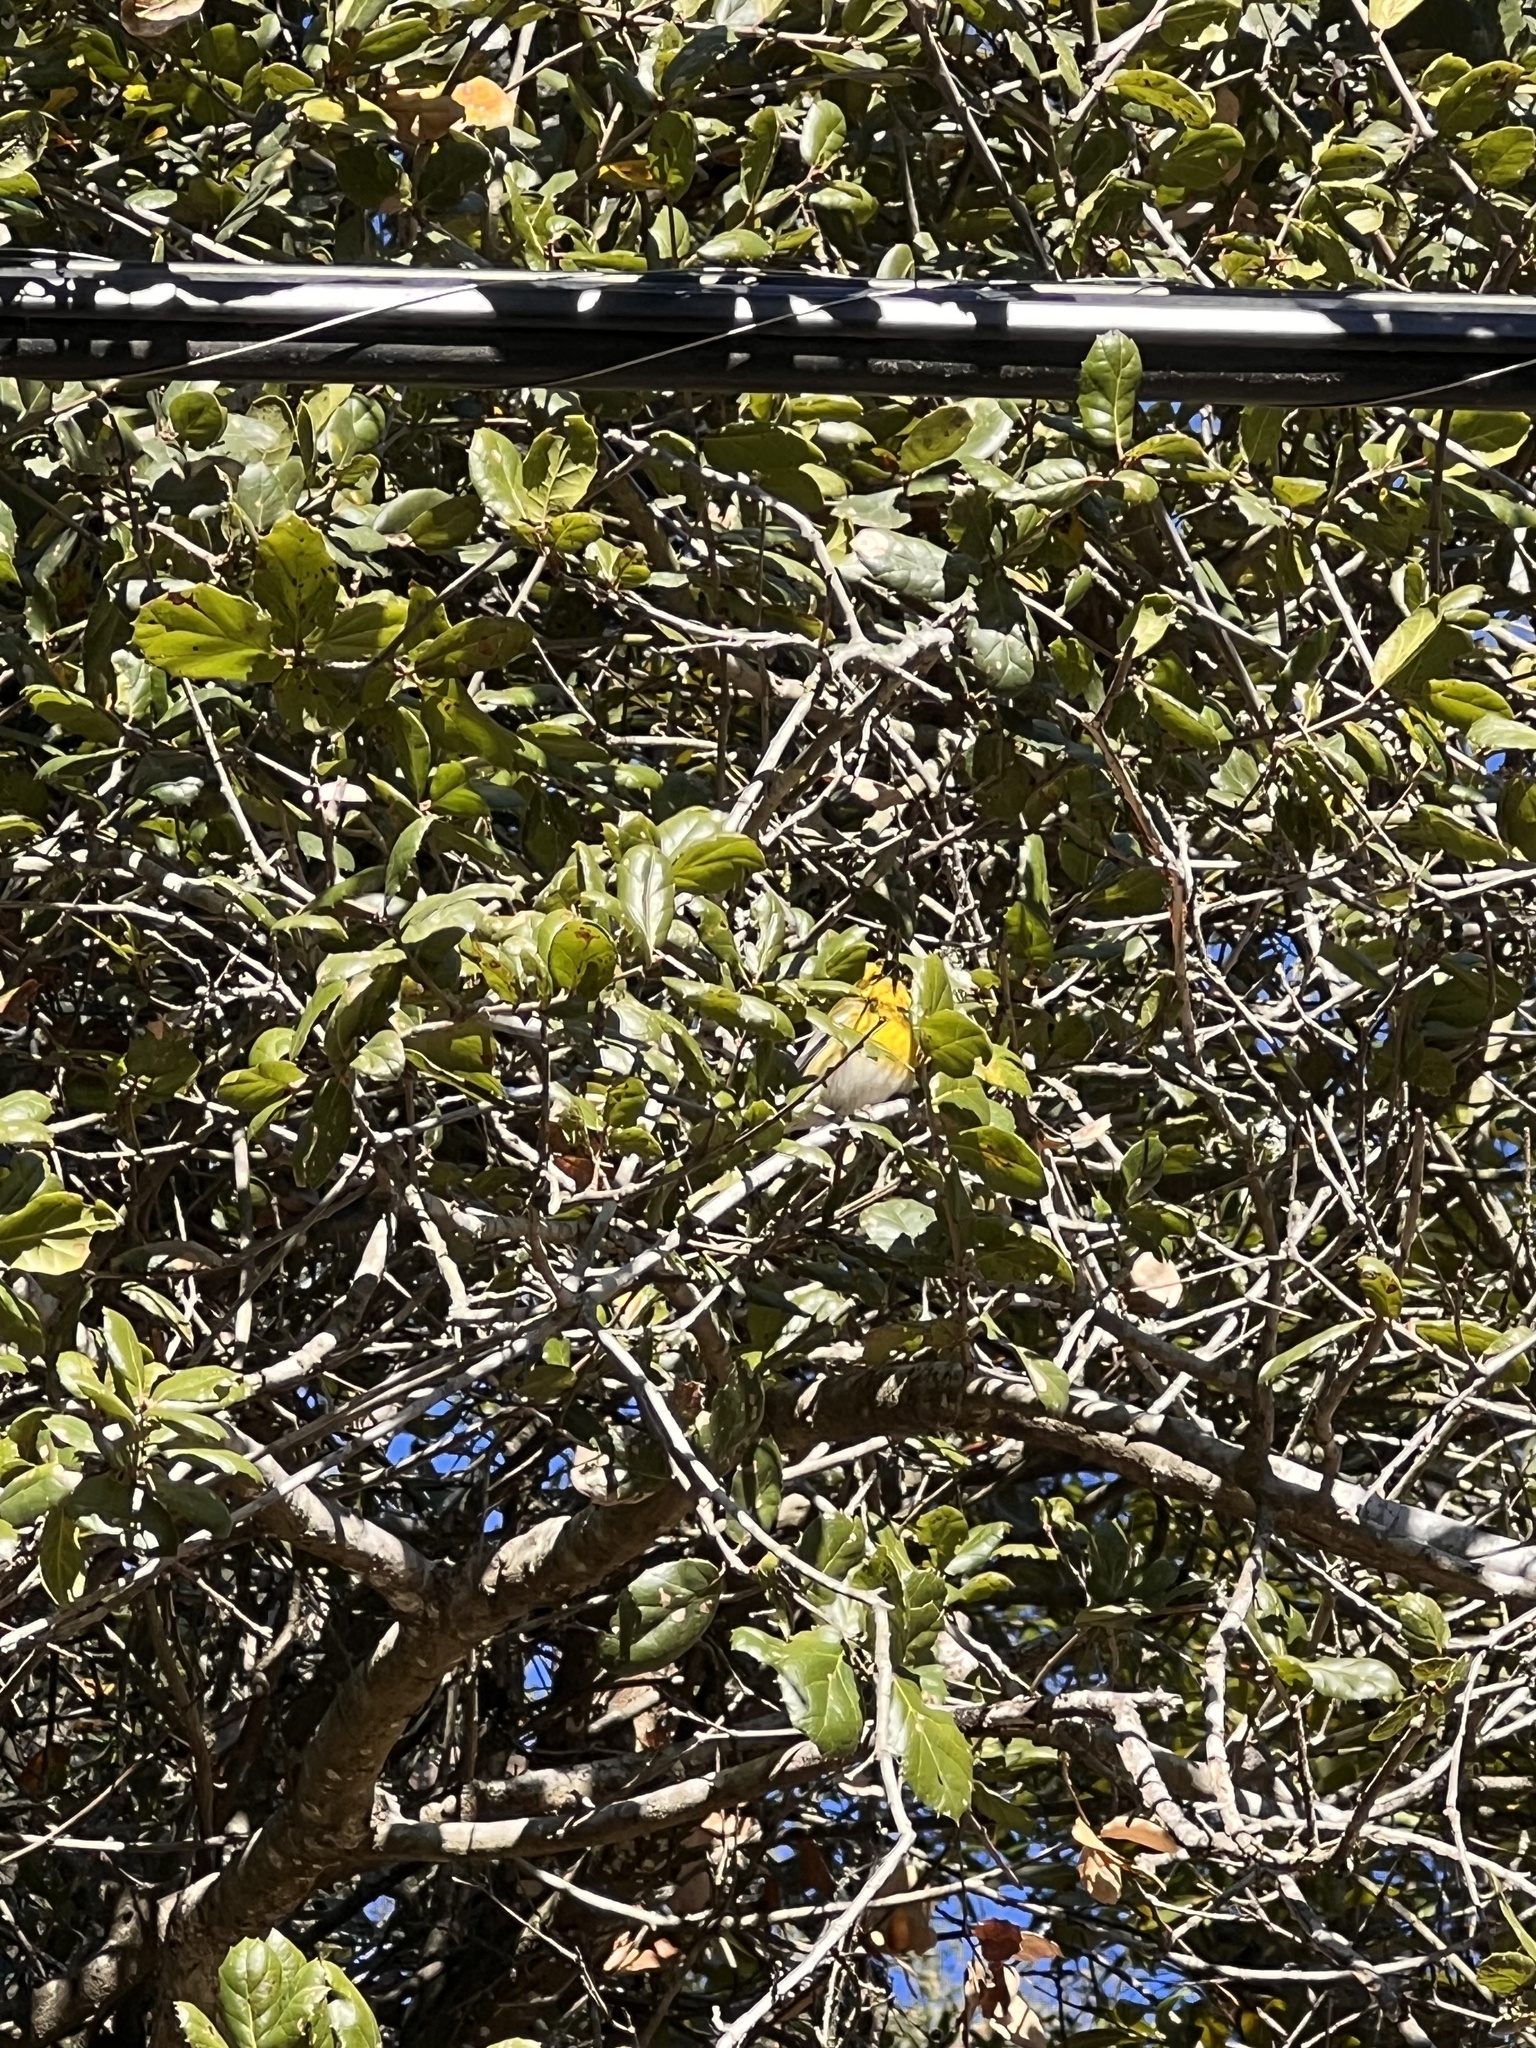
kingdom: Animalia
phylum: Chordata
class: Aves
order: Passeriformes
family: Parulidae
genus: Setophaga
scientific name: Setophaga townsendi
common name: Townsend's warbler
